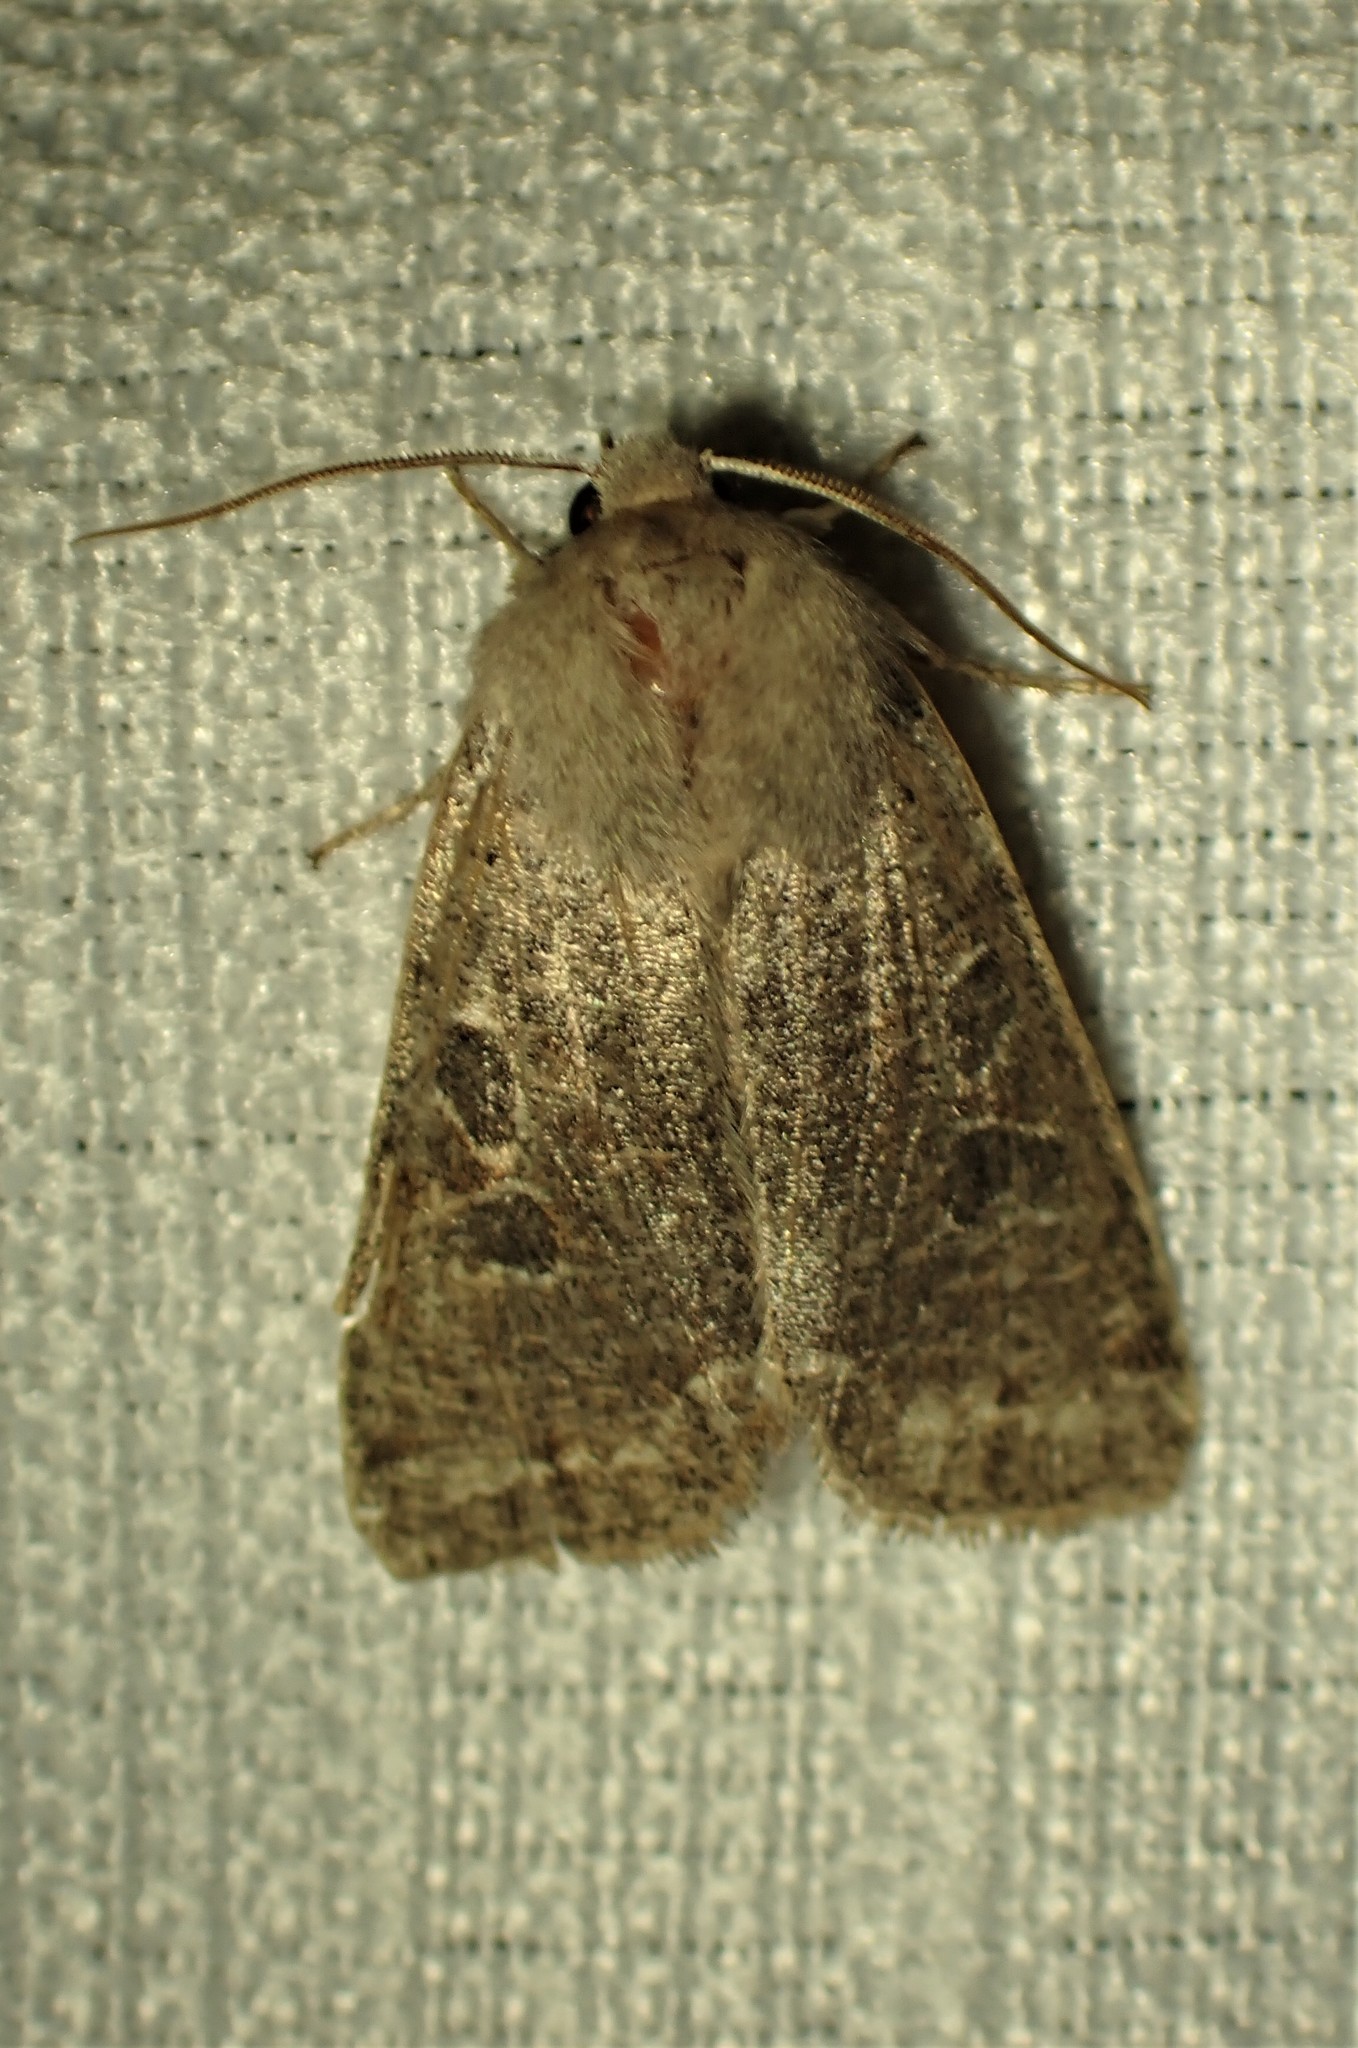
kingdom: Animalia
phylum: Arthropoda
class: Insecta
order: Lepidoptera
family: Noctuidae
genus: Orthosia
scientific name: Orthosia hibisci
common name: Green fruitworm
